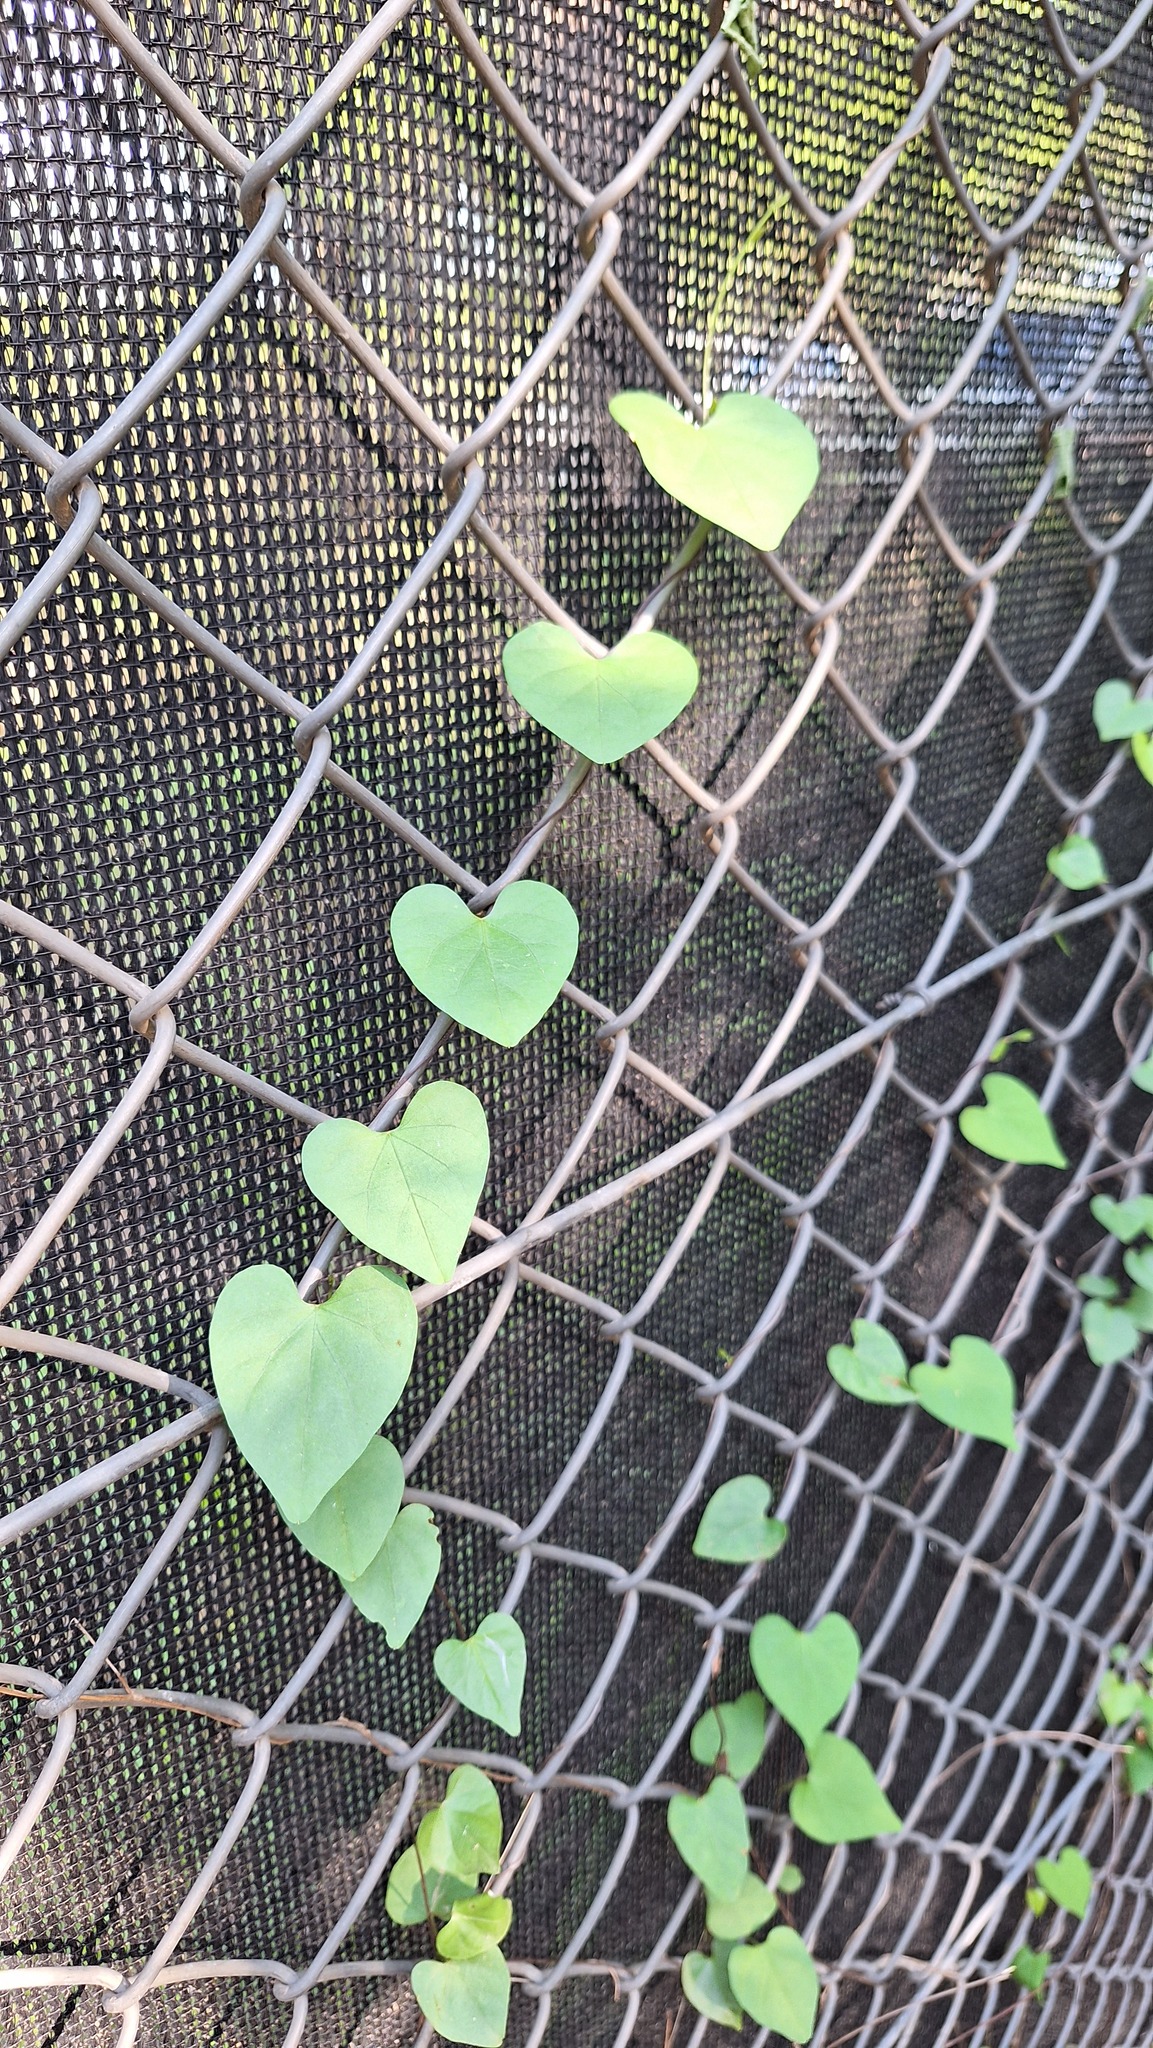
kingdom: Plantae
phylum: Tracheophyta
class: Magnoliopsida
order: Solanales
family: Convolvulaceae
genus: Ipomoea
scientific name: Ipomoea obscura
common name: Obscure morning-glory
